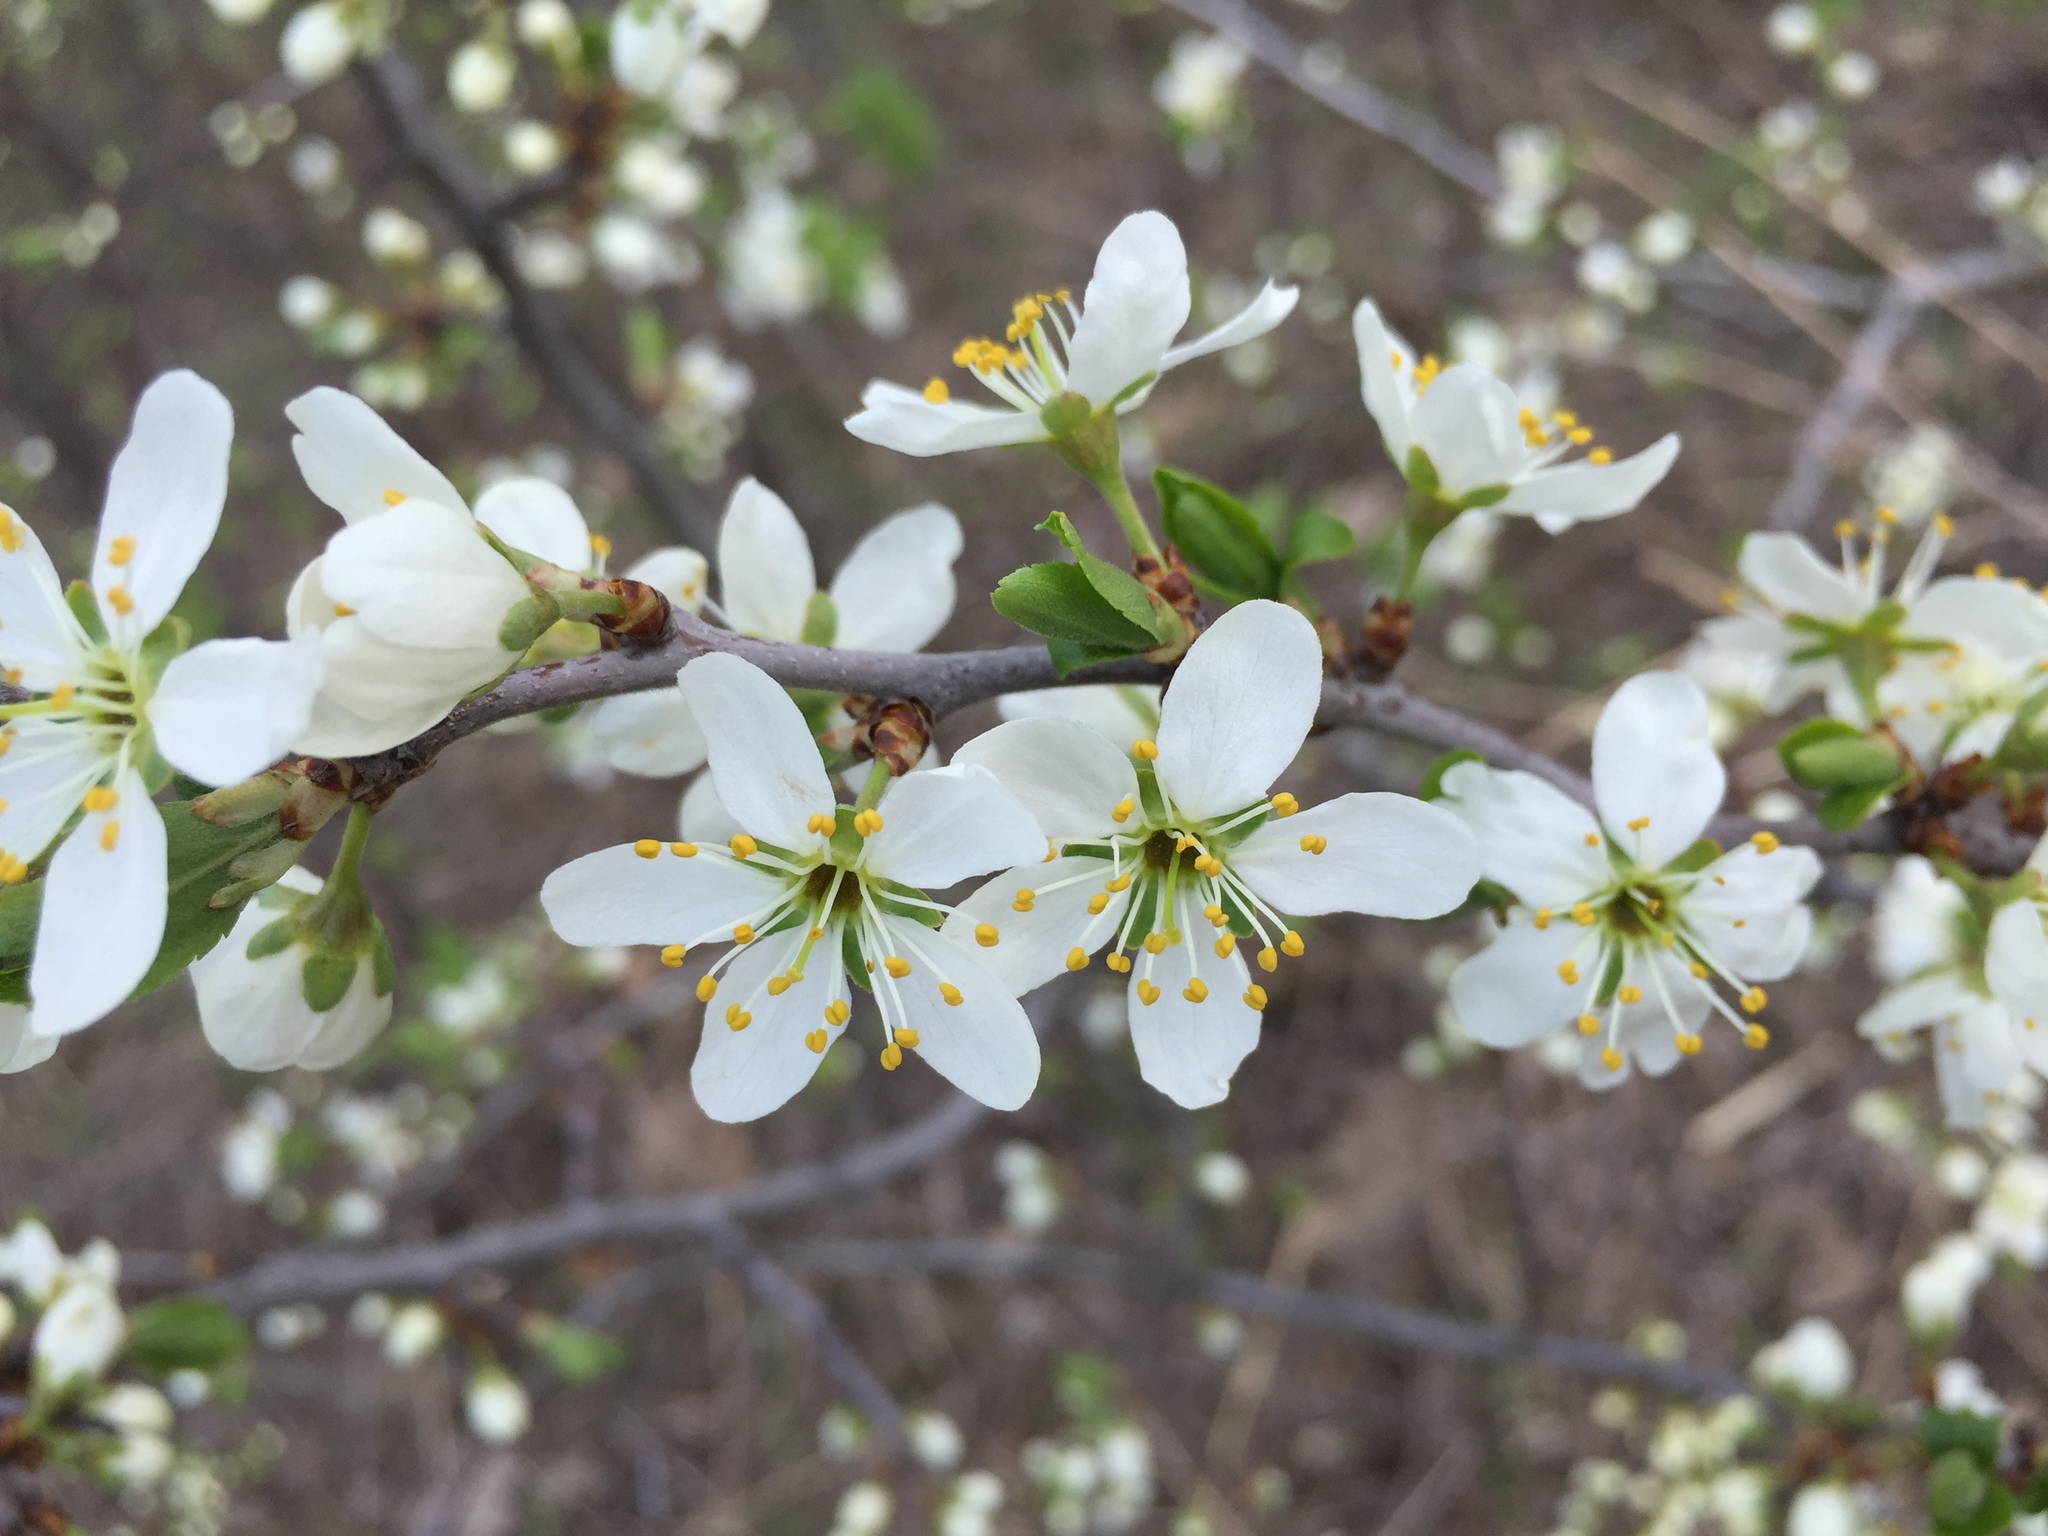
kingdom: Plantae
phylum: Tracheophyta
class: Magnoliopsida
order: Rosales
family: Rosaceae
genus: Prunus
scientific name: Prunus spinosa
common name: Blackthorn
